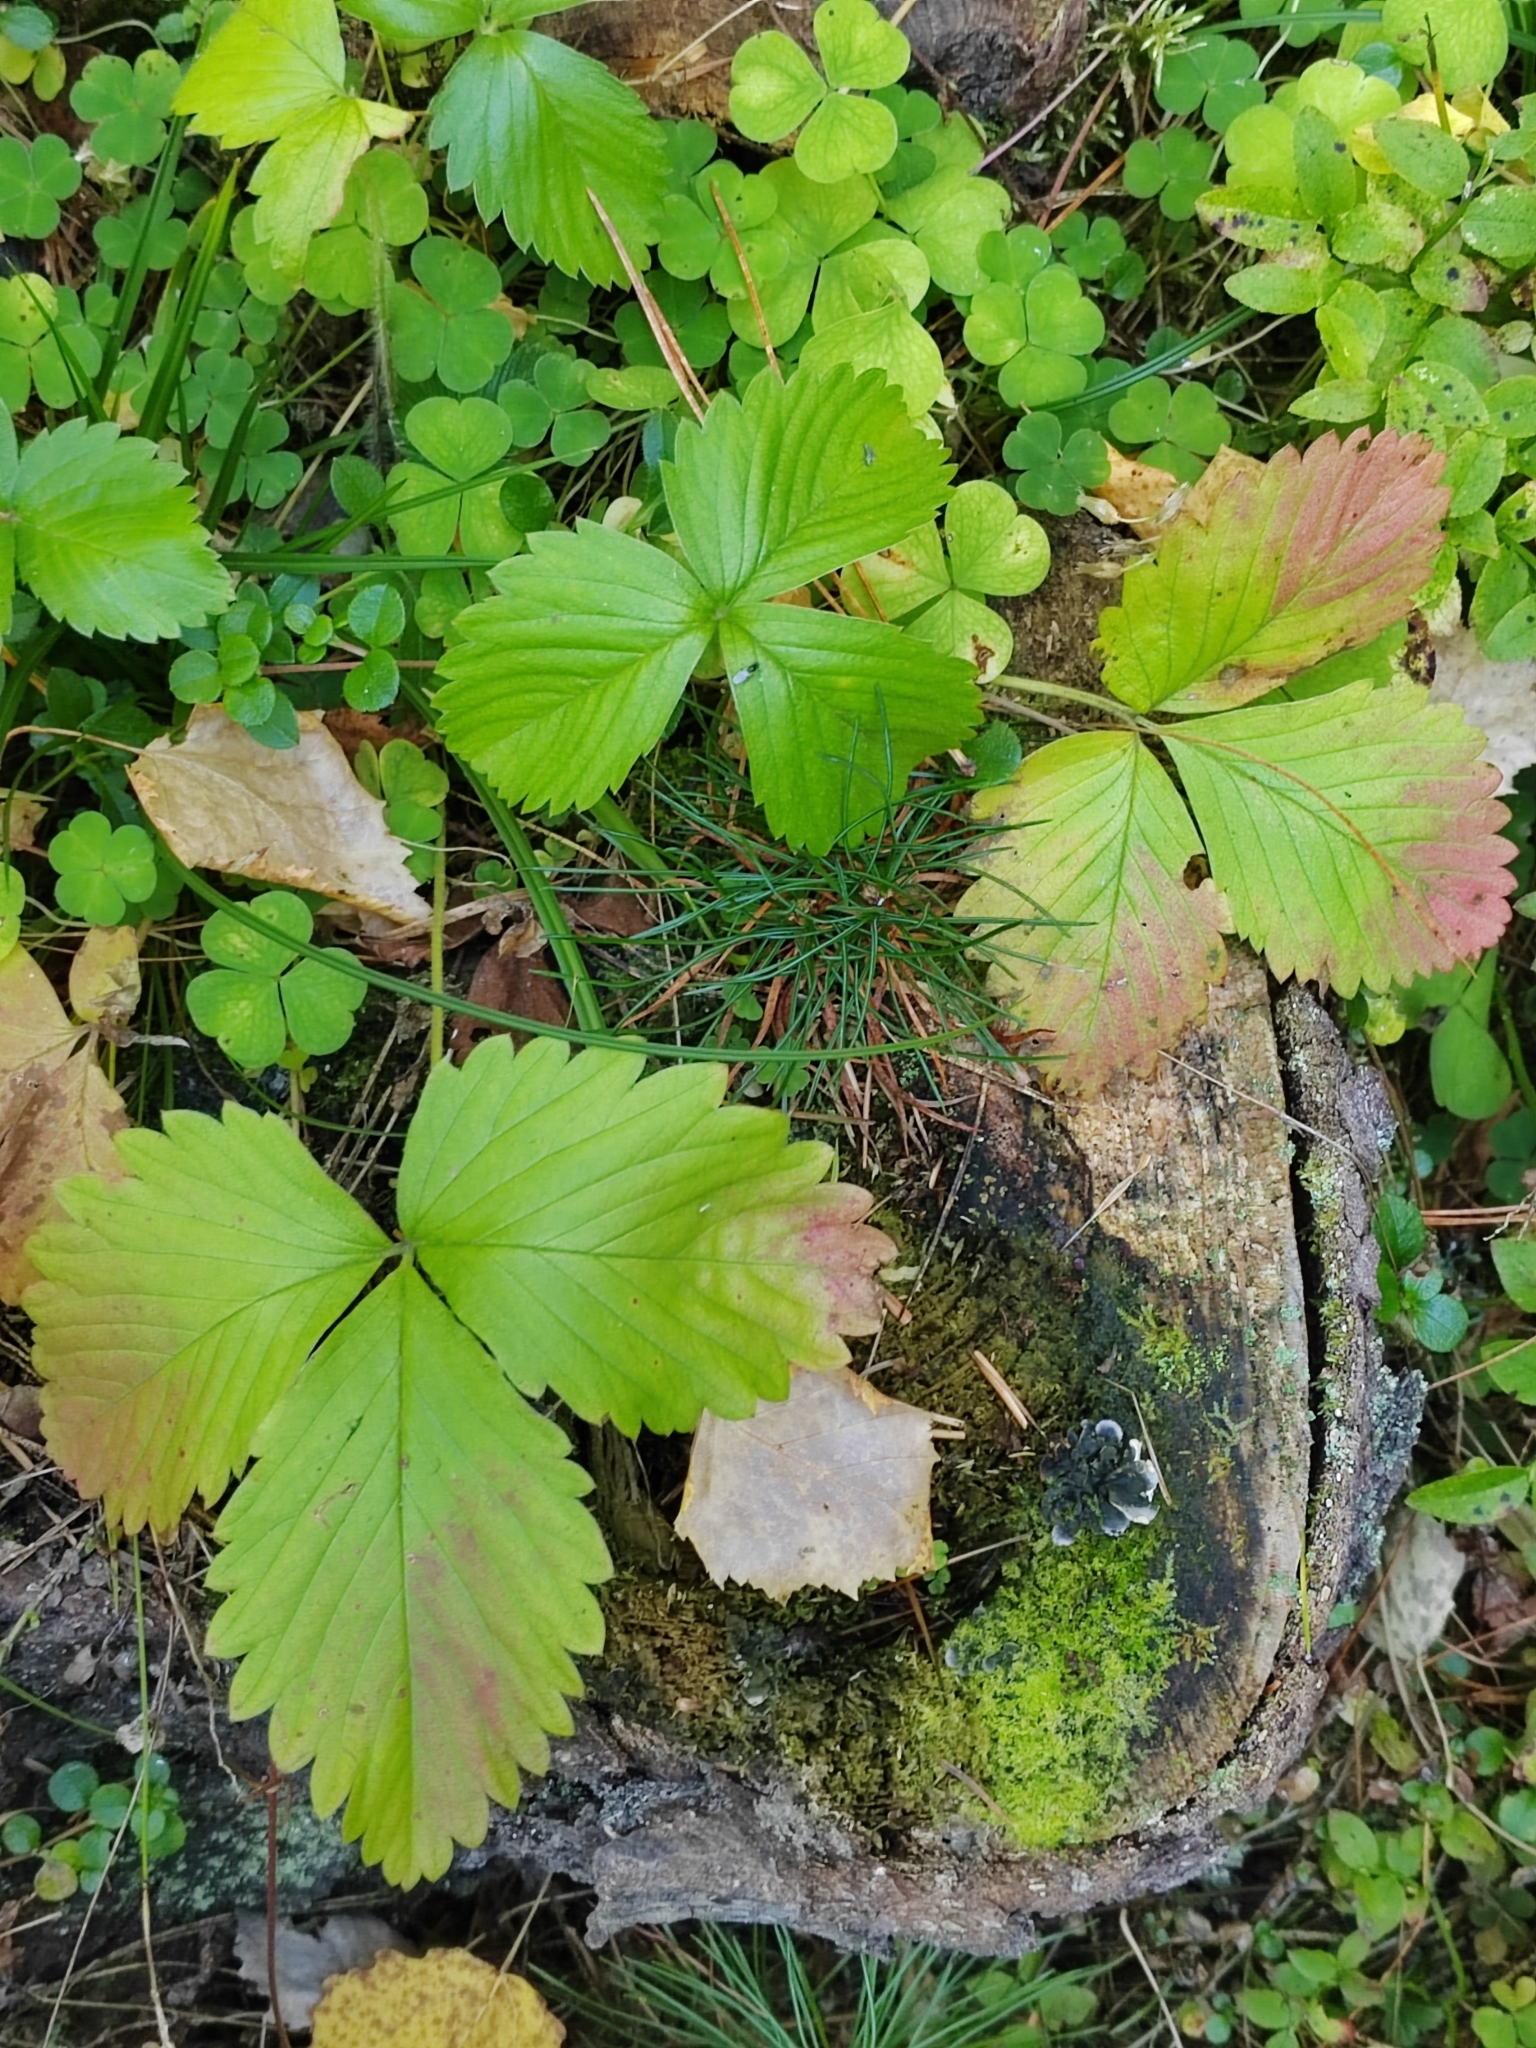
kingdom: Plantae
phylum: Tracheophyta
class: Magnoliopsida
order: Rosales
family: Rosaceae
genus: Fragaria
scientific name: Fragaria vesca
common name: Wild strawberry
